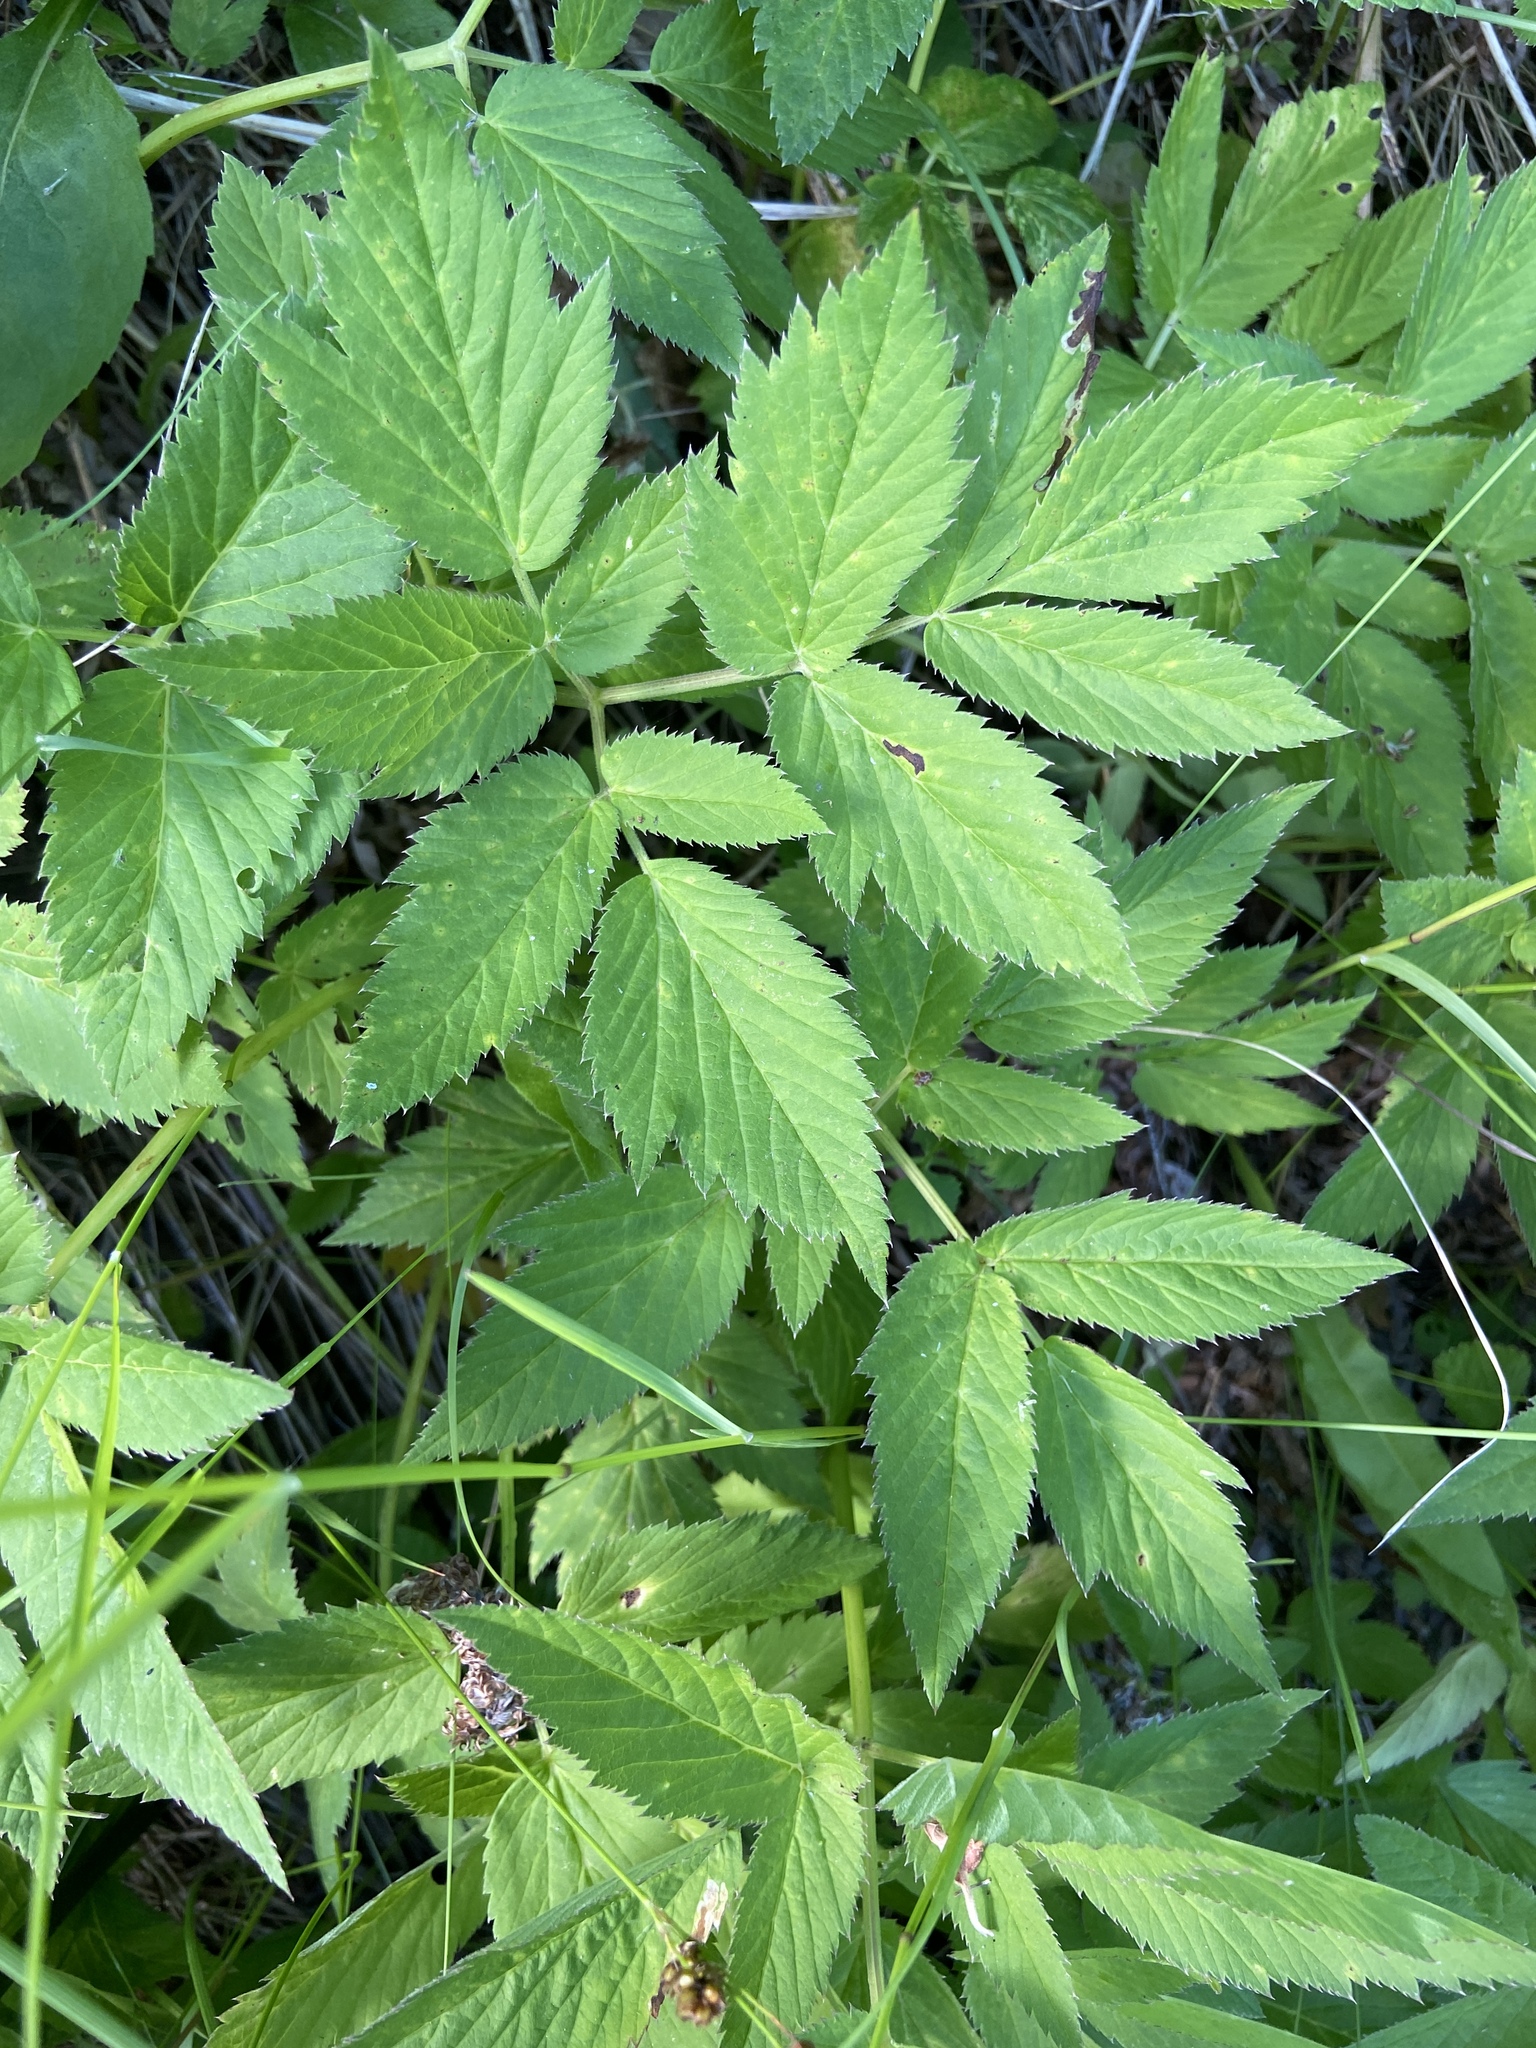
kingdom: Plantae
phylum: Tracheophyta
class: Magnoliopsida
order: Apiales
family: Apiaceae
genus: Aegopodium
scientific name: Aegopodium podagraria
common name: Ground-elder
